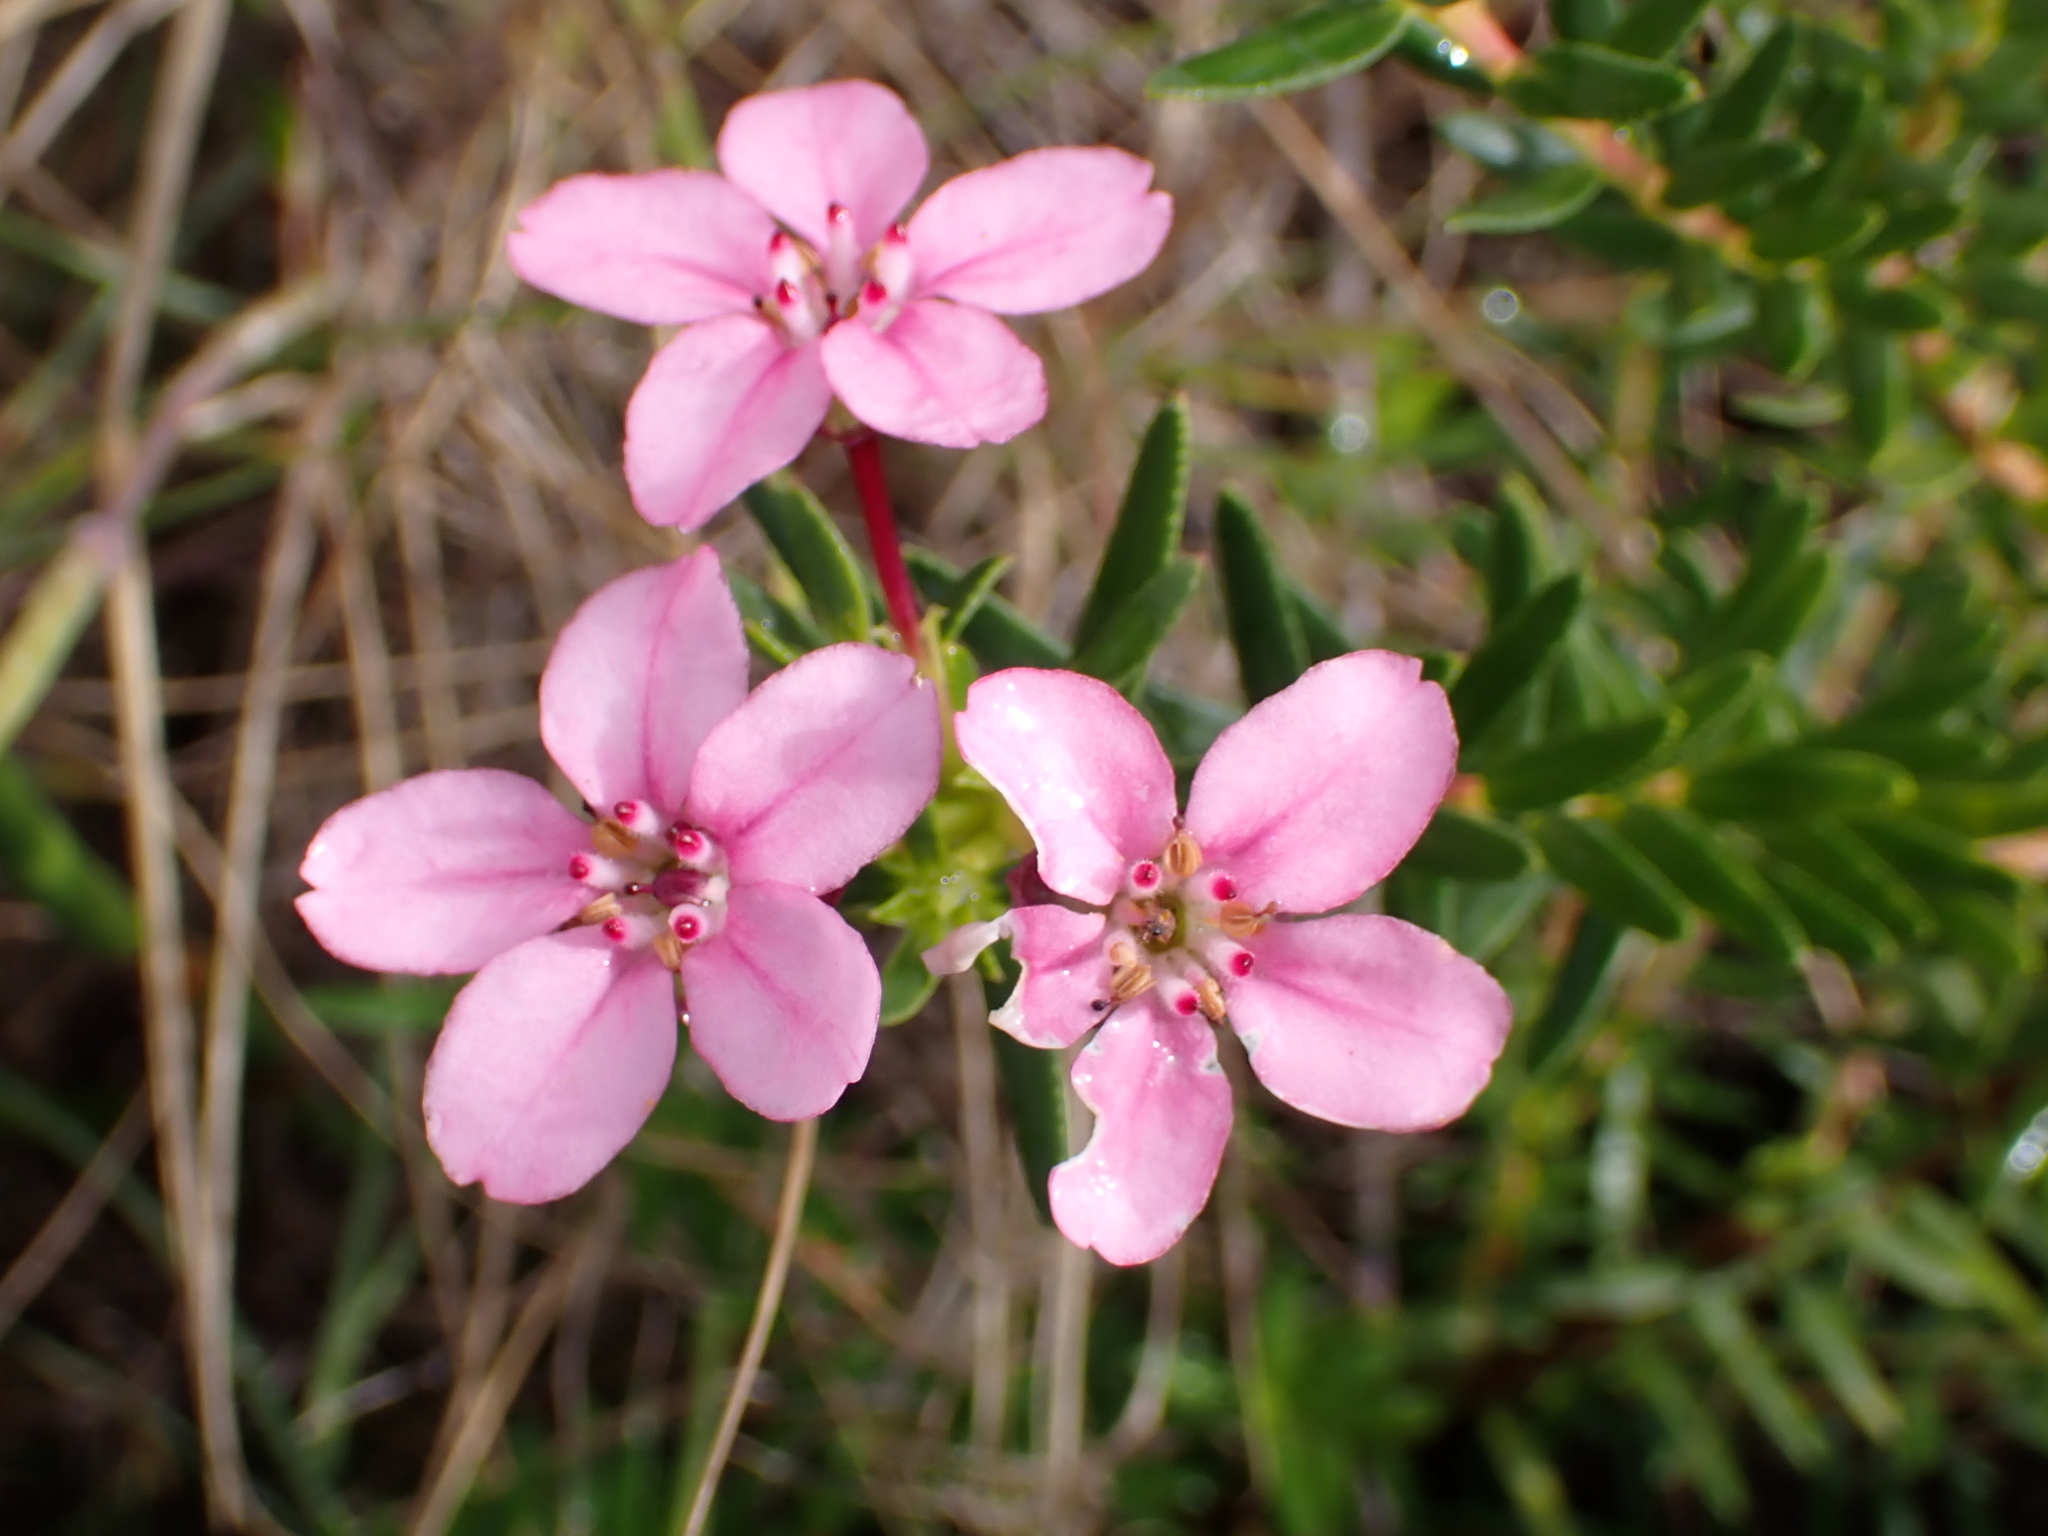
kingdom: Plantae
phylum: Tracheophyta
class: Magnoliopsida
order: Sapindales
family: Rutaceae
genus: Adenandra
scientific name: Adenandra fragrans
